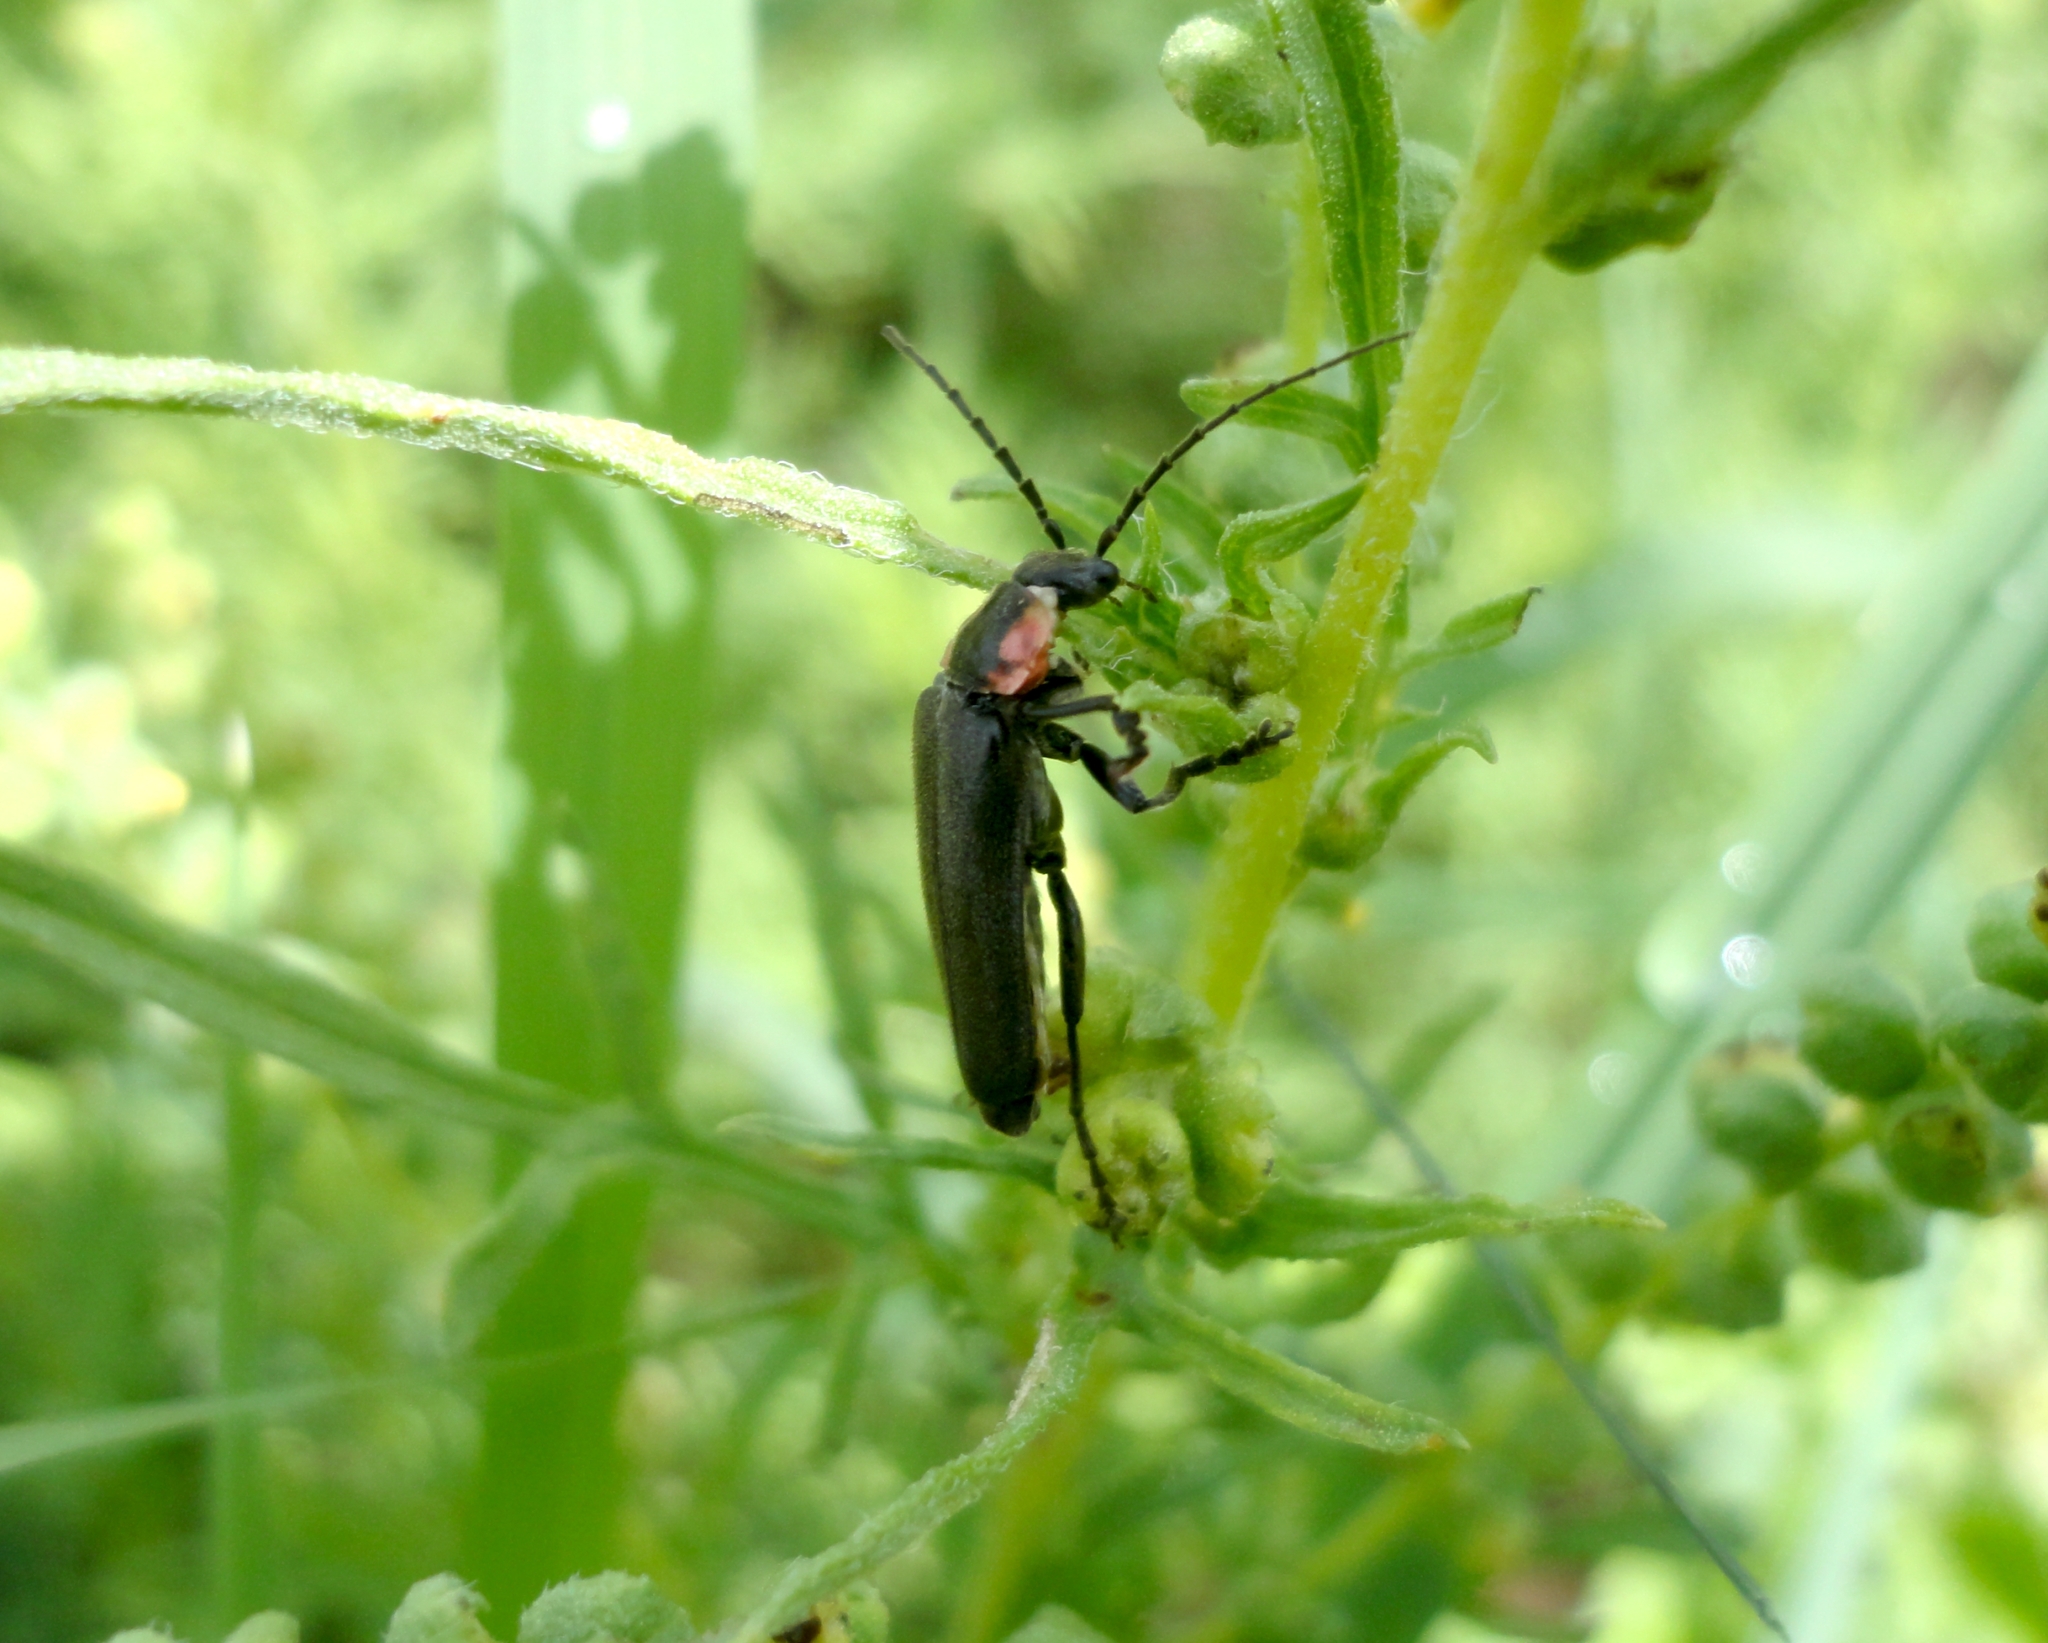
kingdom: Animalia
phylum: Arthropoda
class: Insecta
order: Coleoptera
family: Cantharidae
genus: Discodon
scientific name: Discodon
